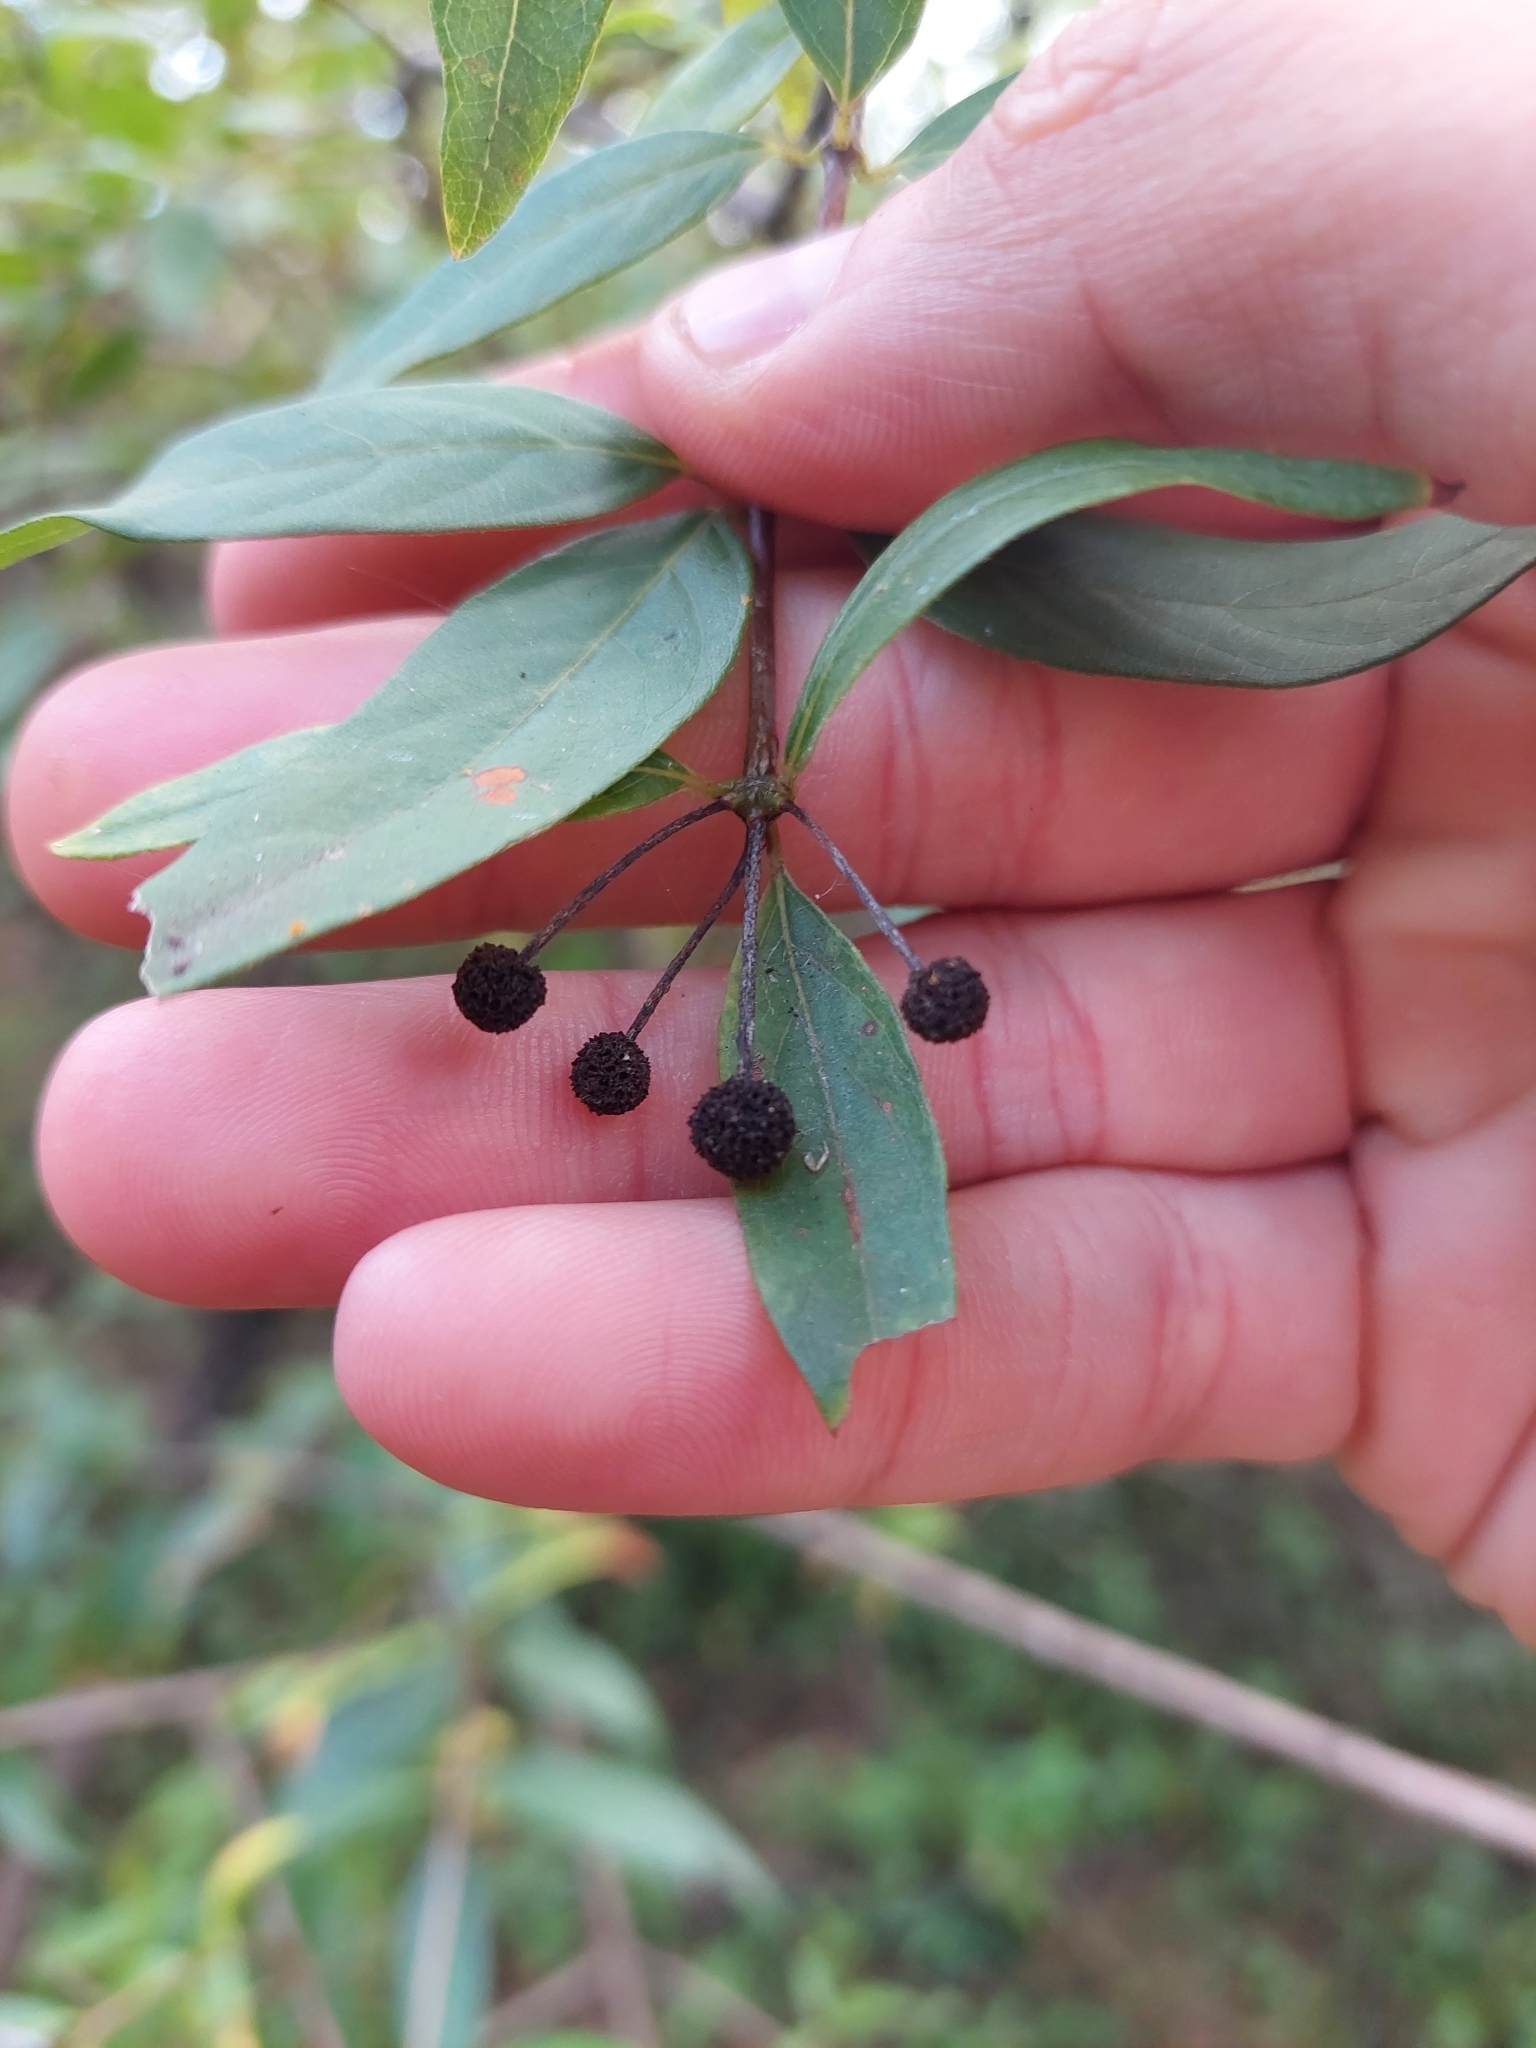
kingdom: Plantae
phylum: Tracheophyta
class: Magnoliopsida
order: Gentianales
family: Rubiaceae
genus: Cephalanthus
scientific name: Cephalanthus glabratus
